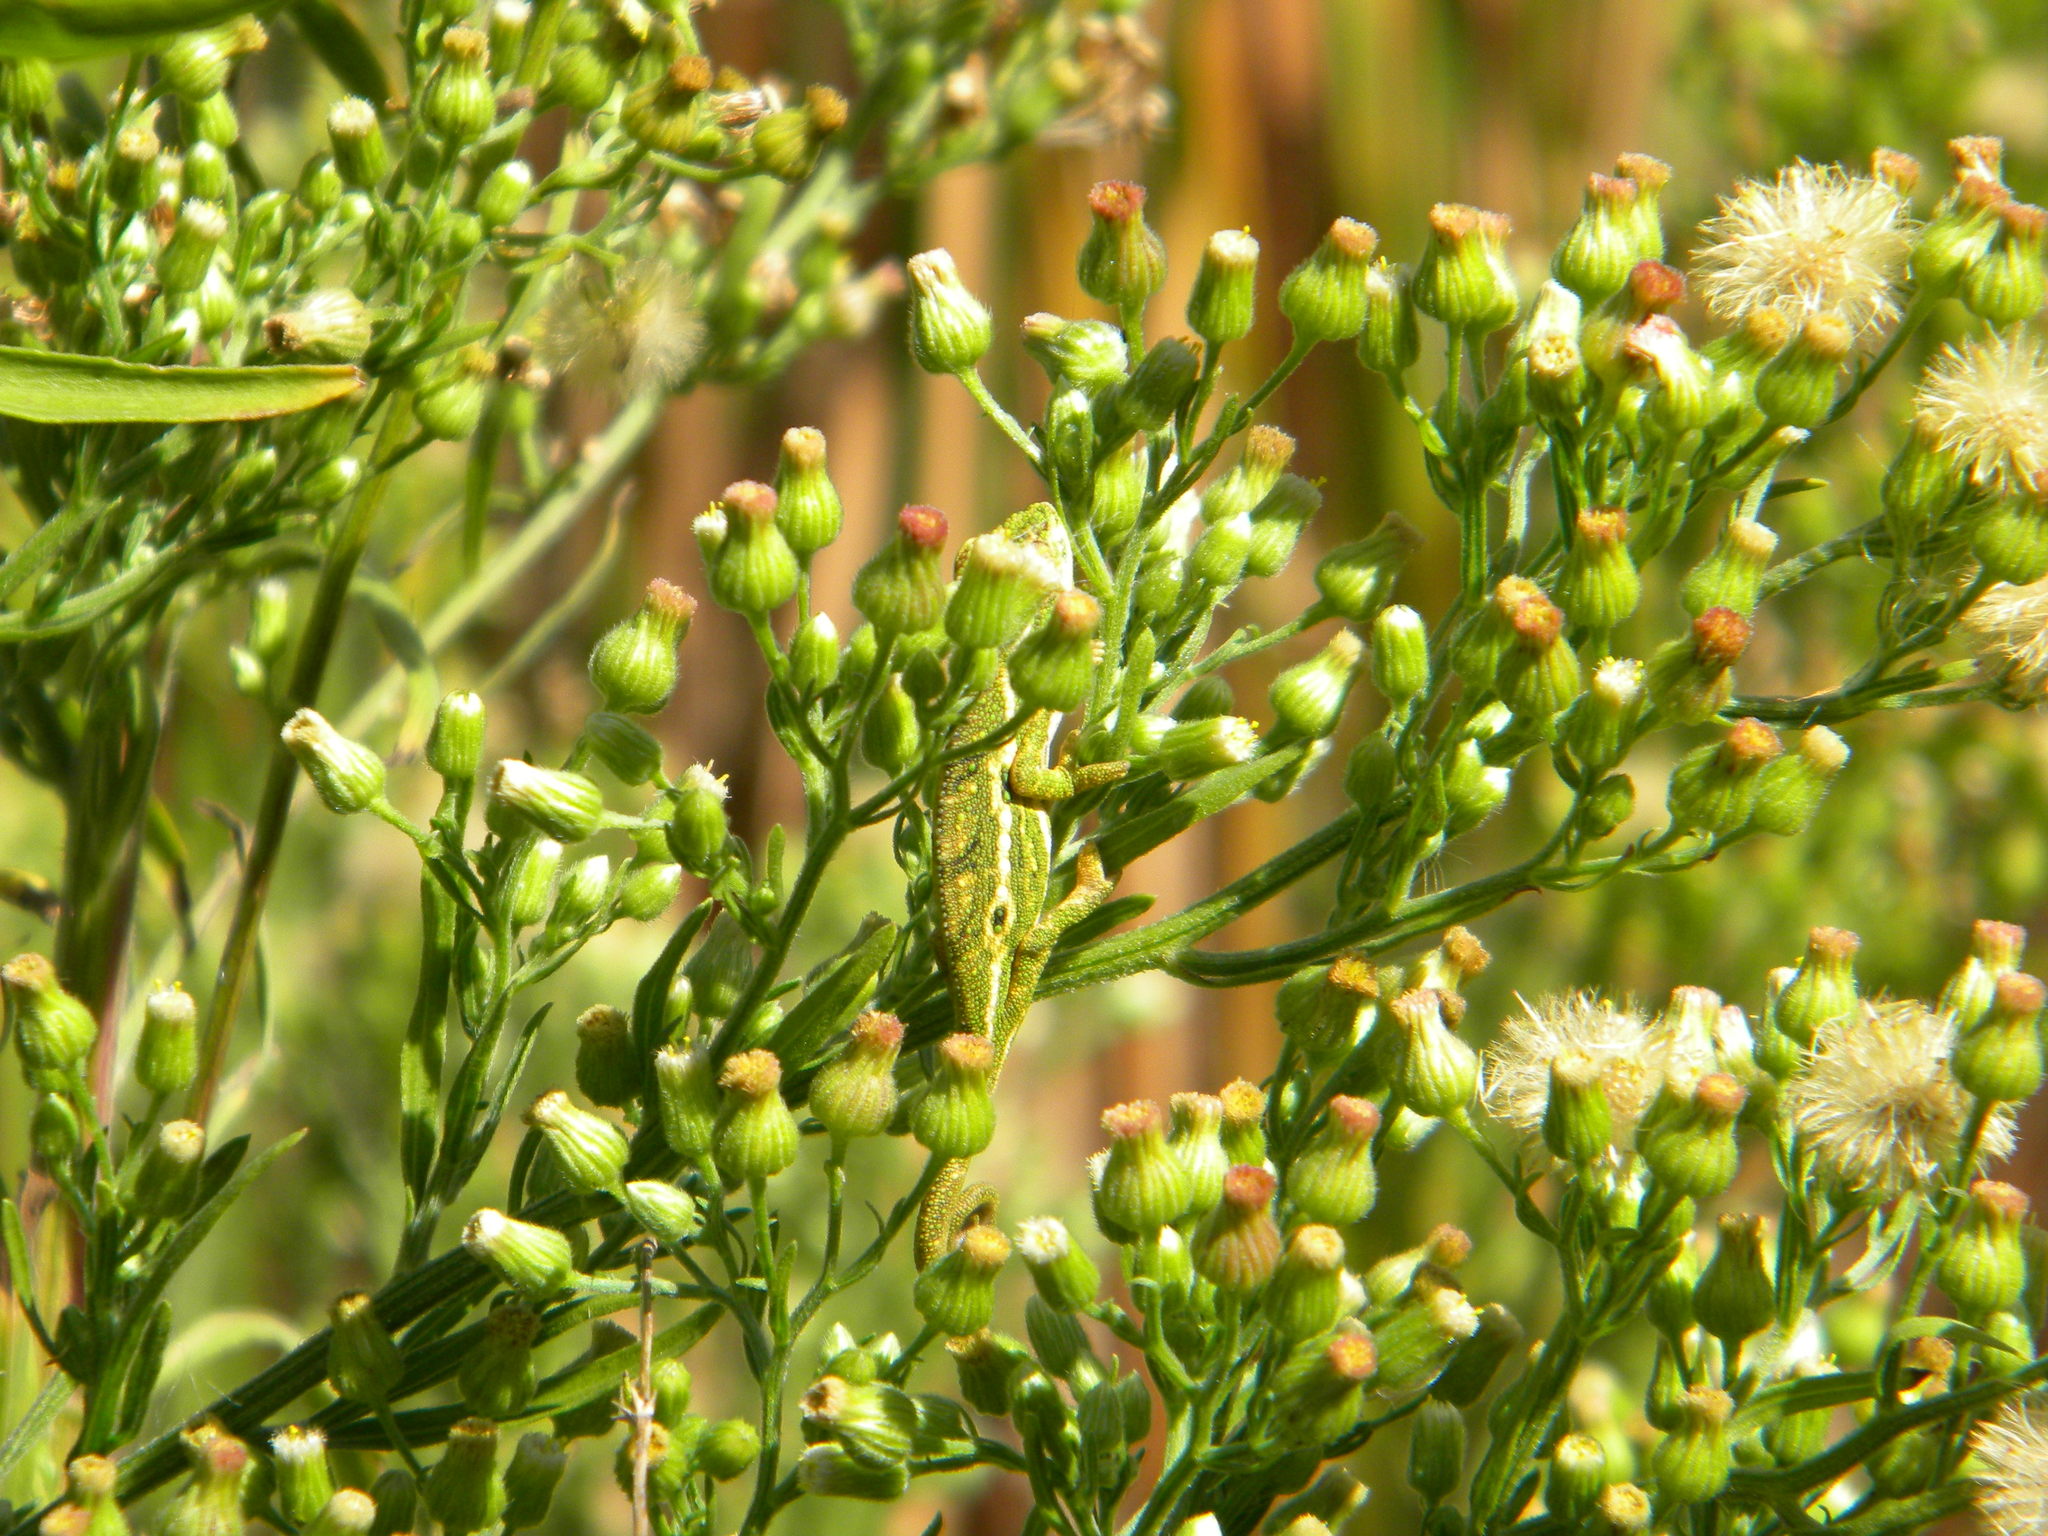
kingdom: Animalia
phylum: Chordata
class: Squamata
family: Chamaeleonidae
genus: Bradypodion
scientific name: Bradypodion pumilum
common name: Cape dwarf chameleon
